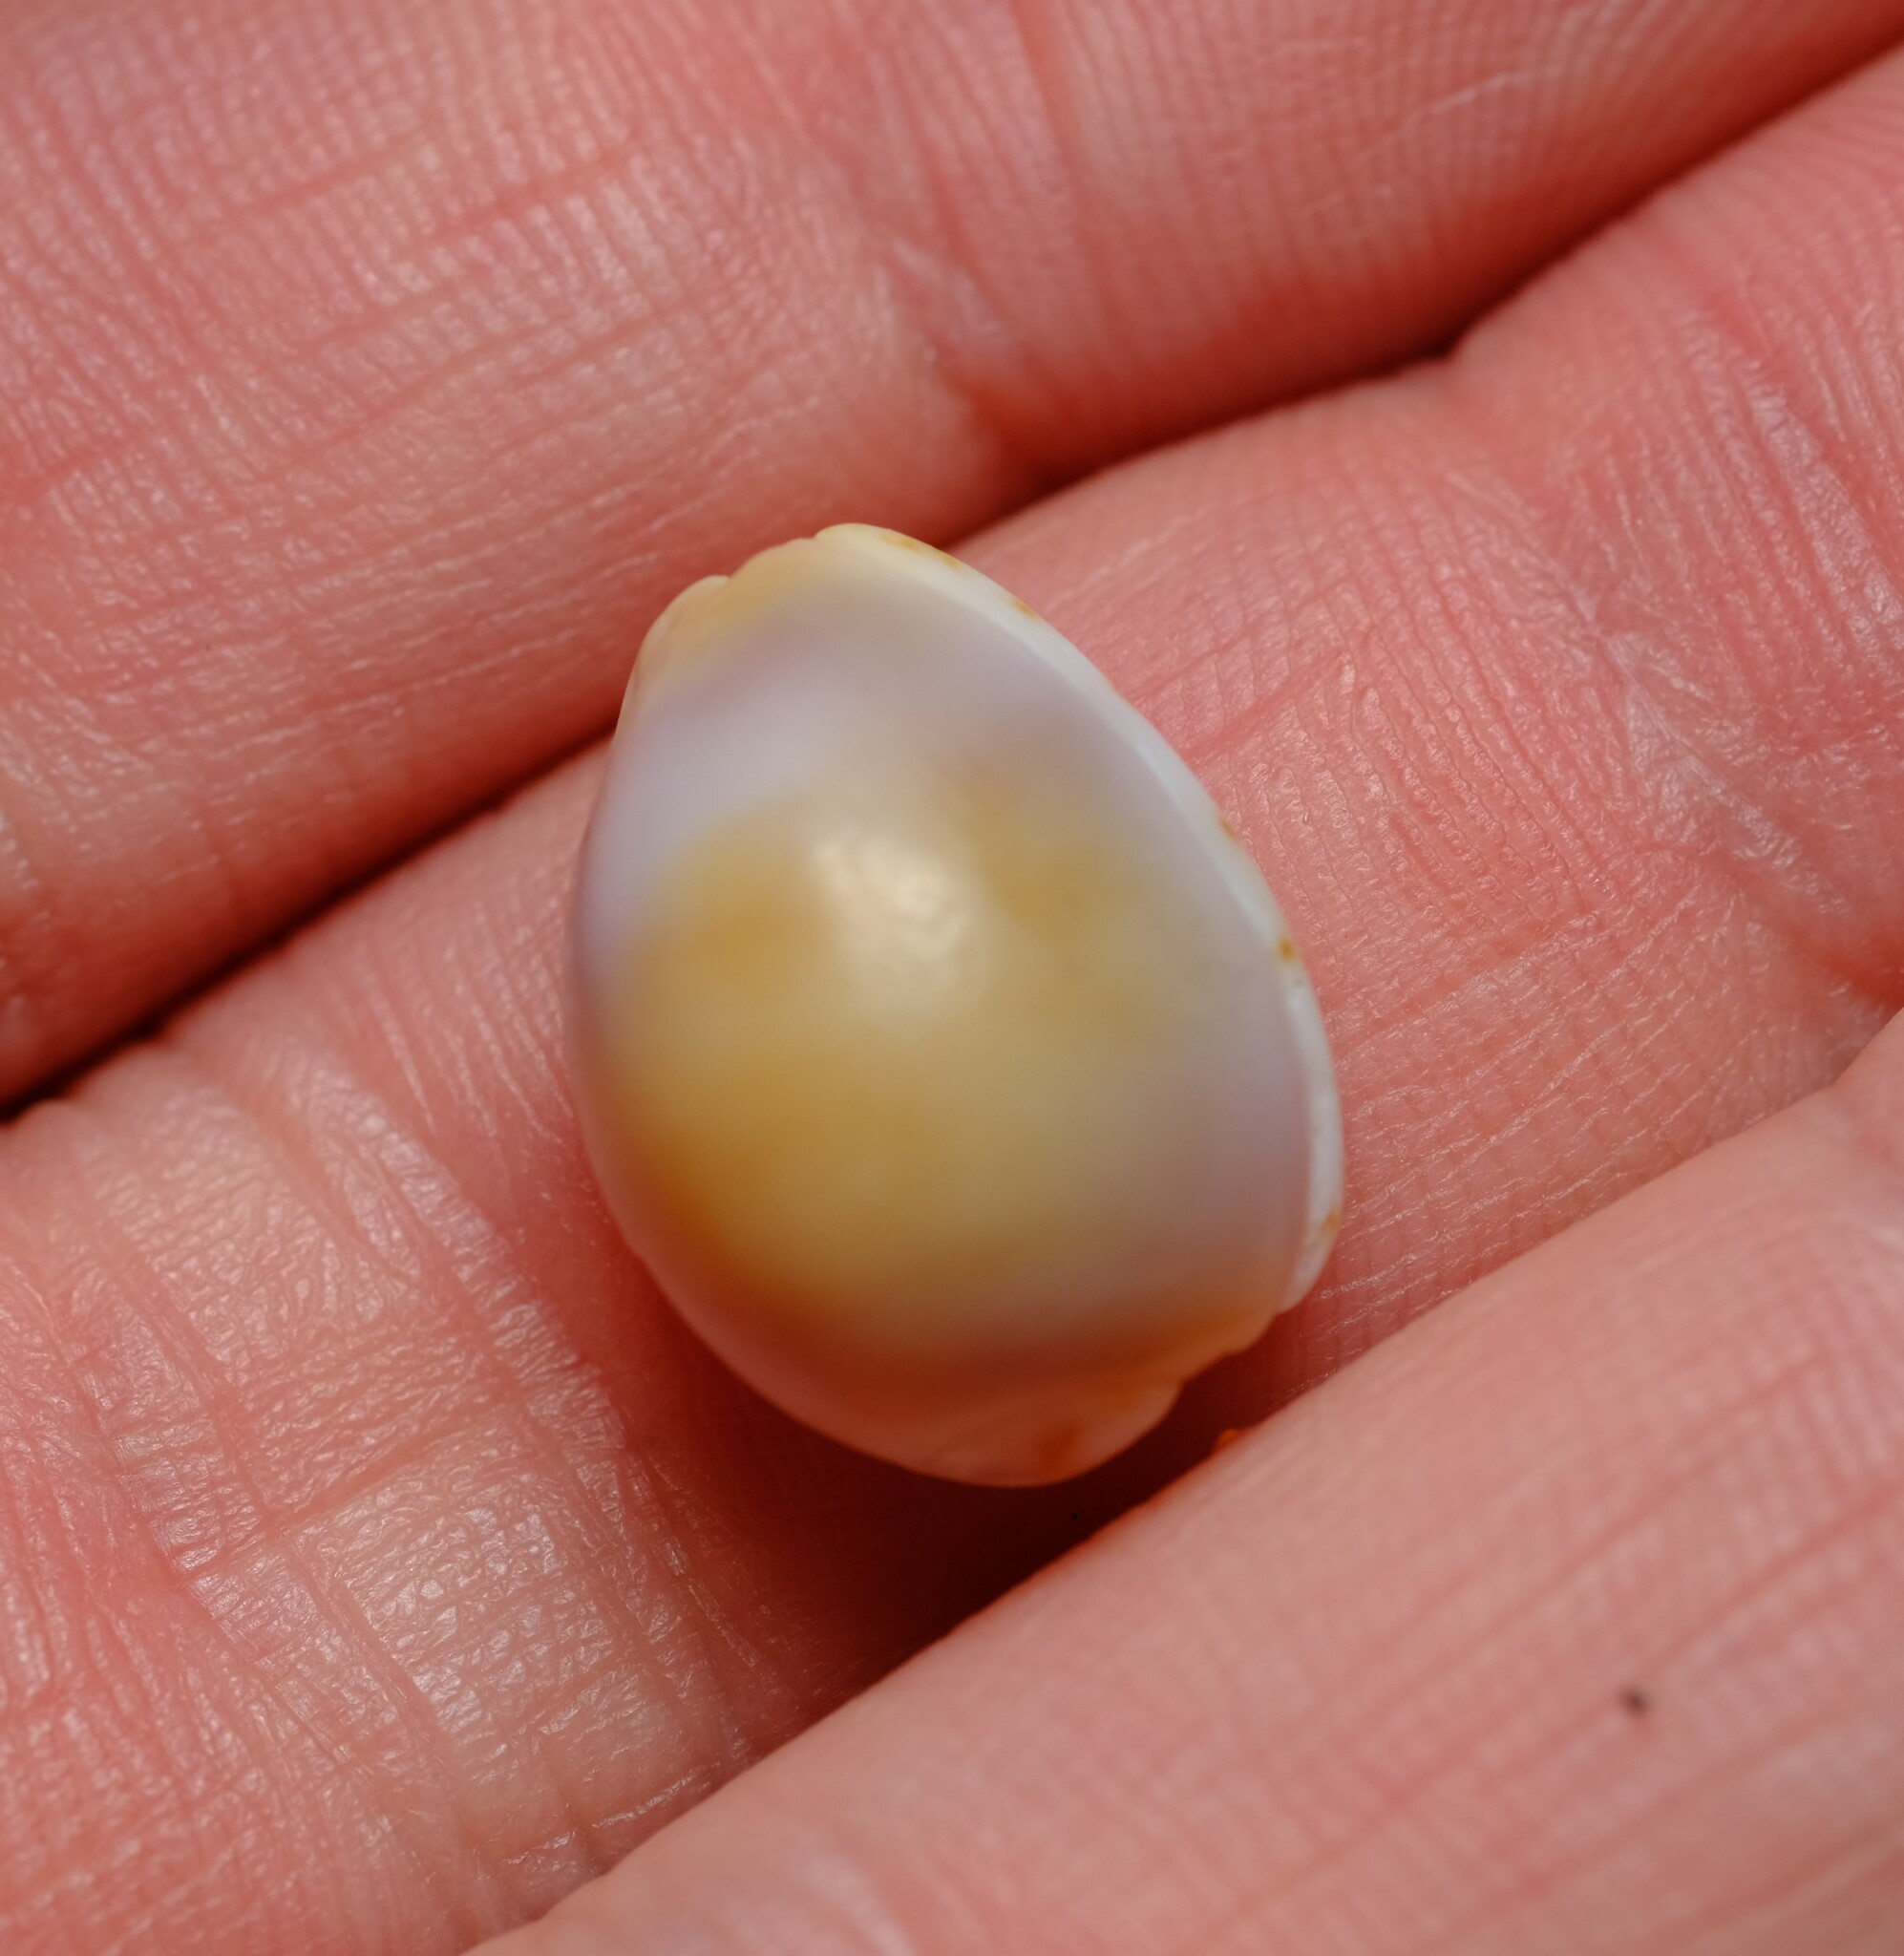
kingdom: Animalia
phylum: Mollusca
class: Gastropoda
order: Littorinimorpha
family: Cypraeidae
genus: Purpuradusta
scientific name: Purpuradusta gracilis
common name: Graceful cowrie
